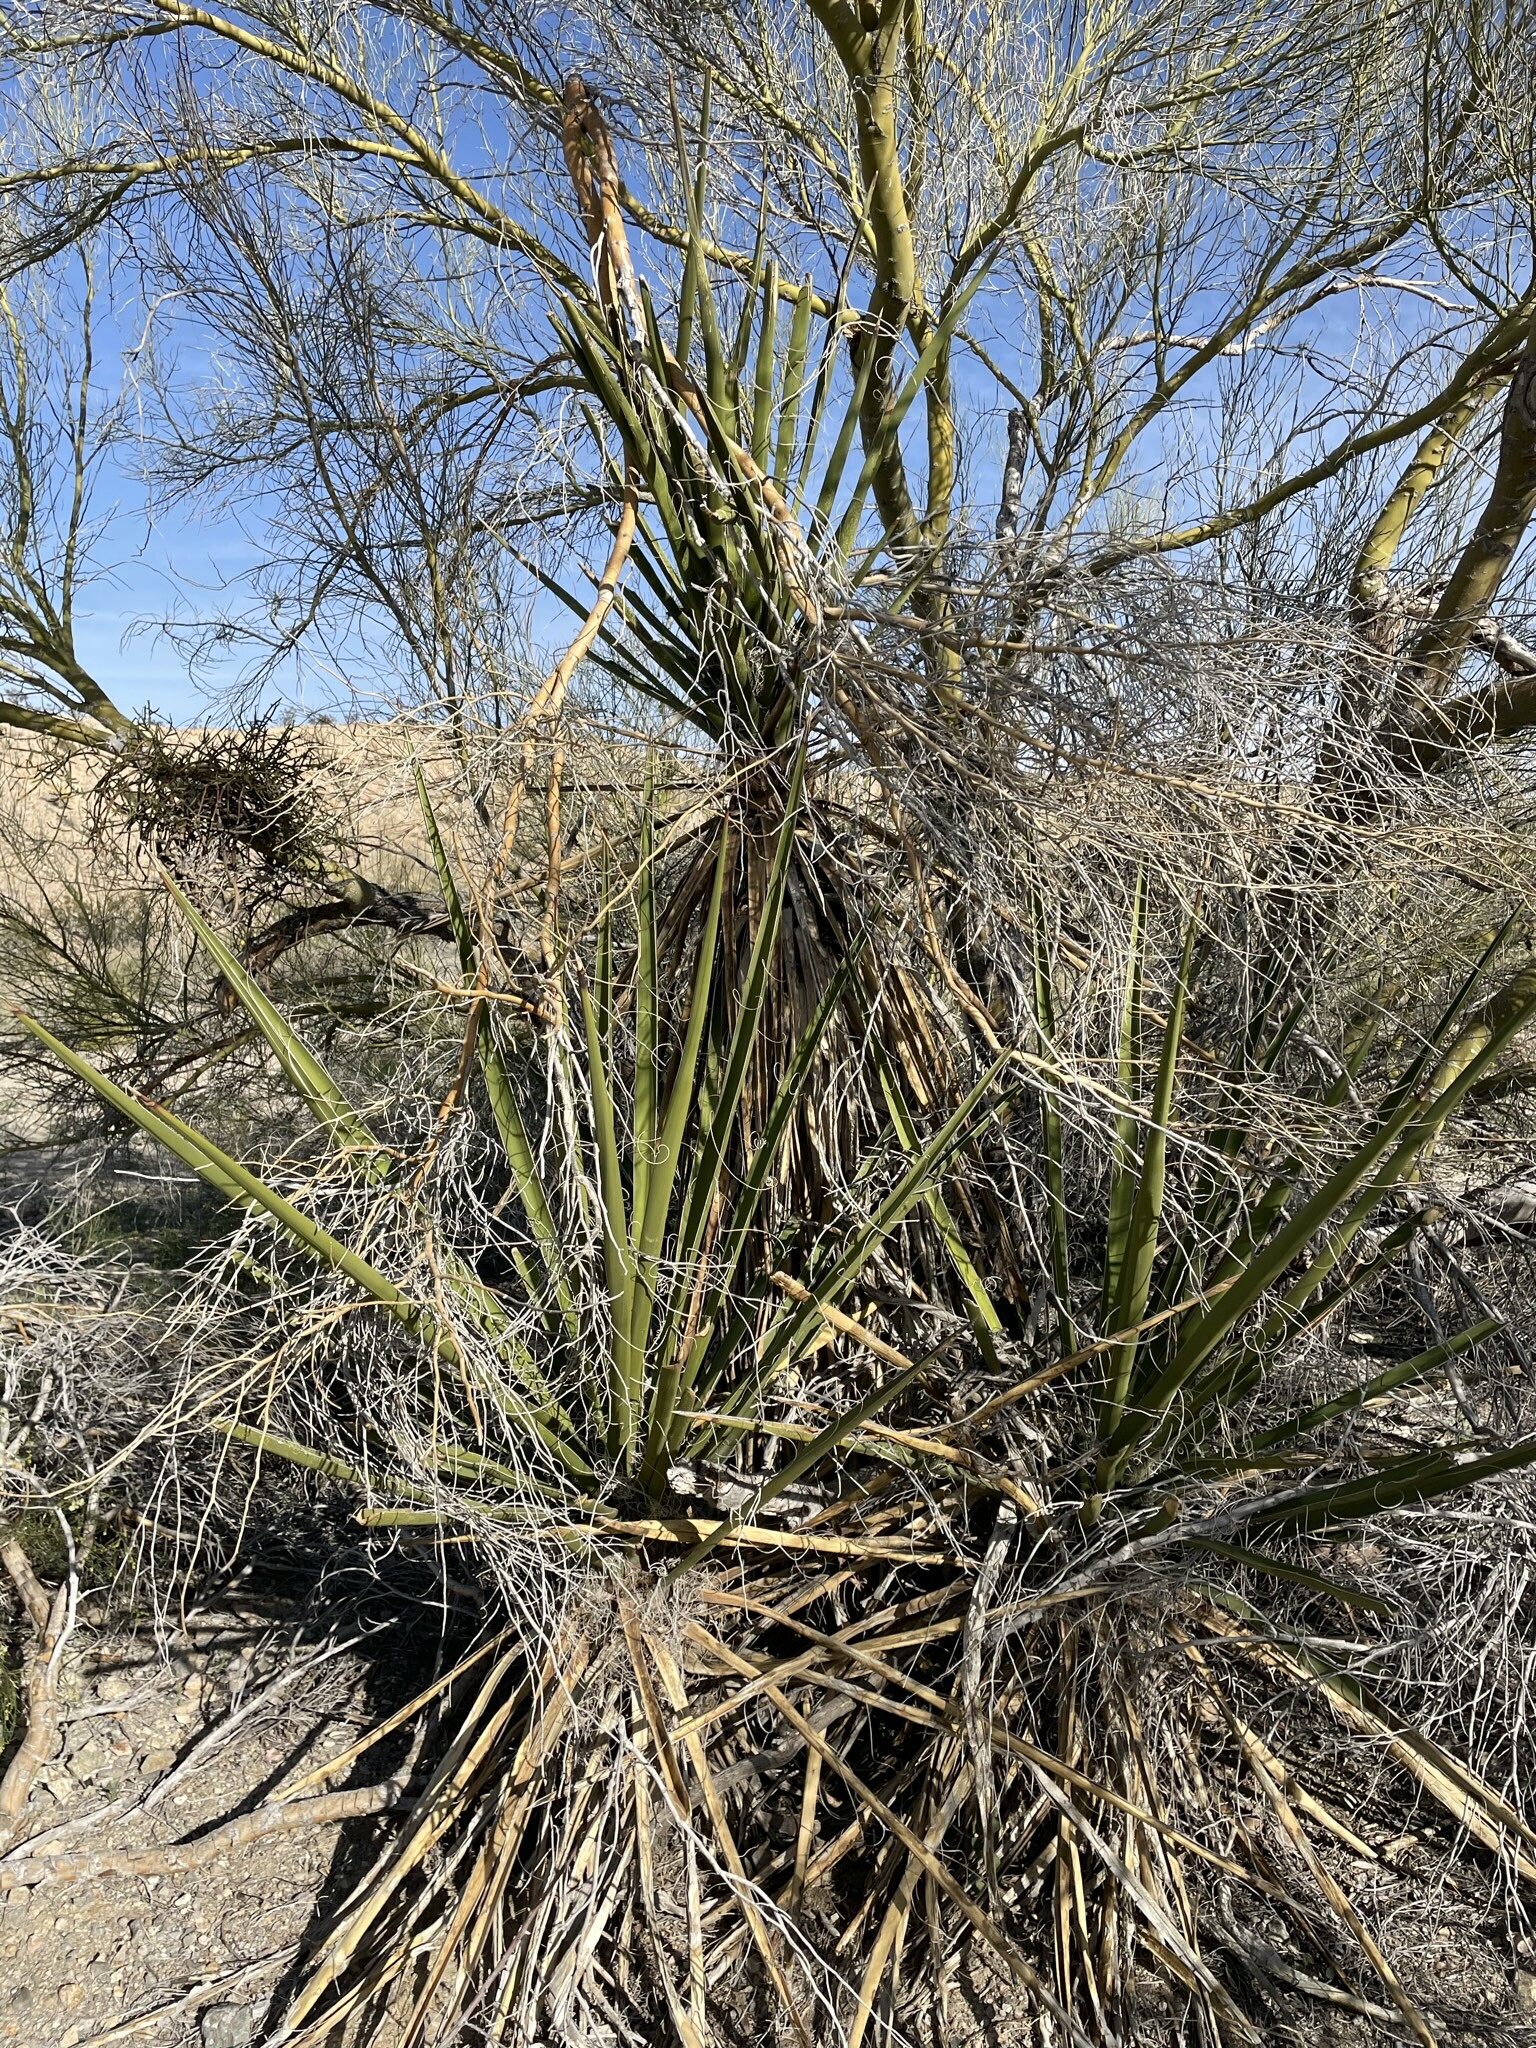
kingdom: Plantae
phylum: Tracheophyta
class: Liliopsida
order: Asparagales
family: Asparagaceae
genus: Yucca
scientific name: Yucca schidigera
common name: Mojave yucca
